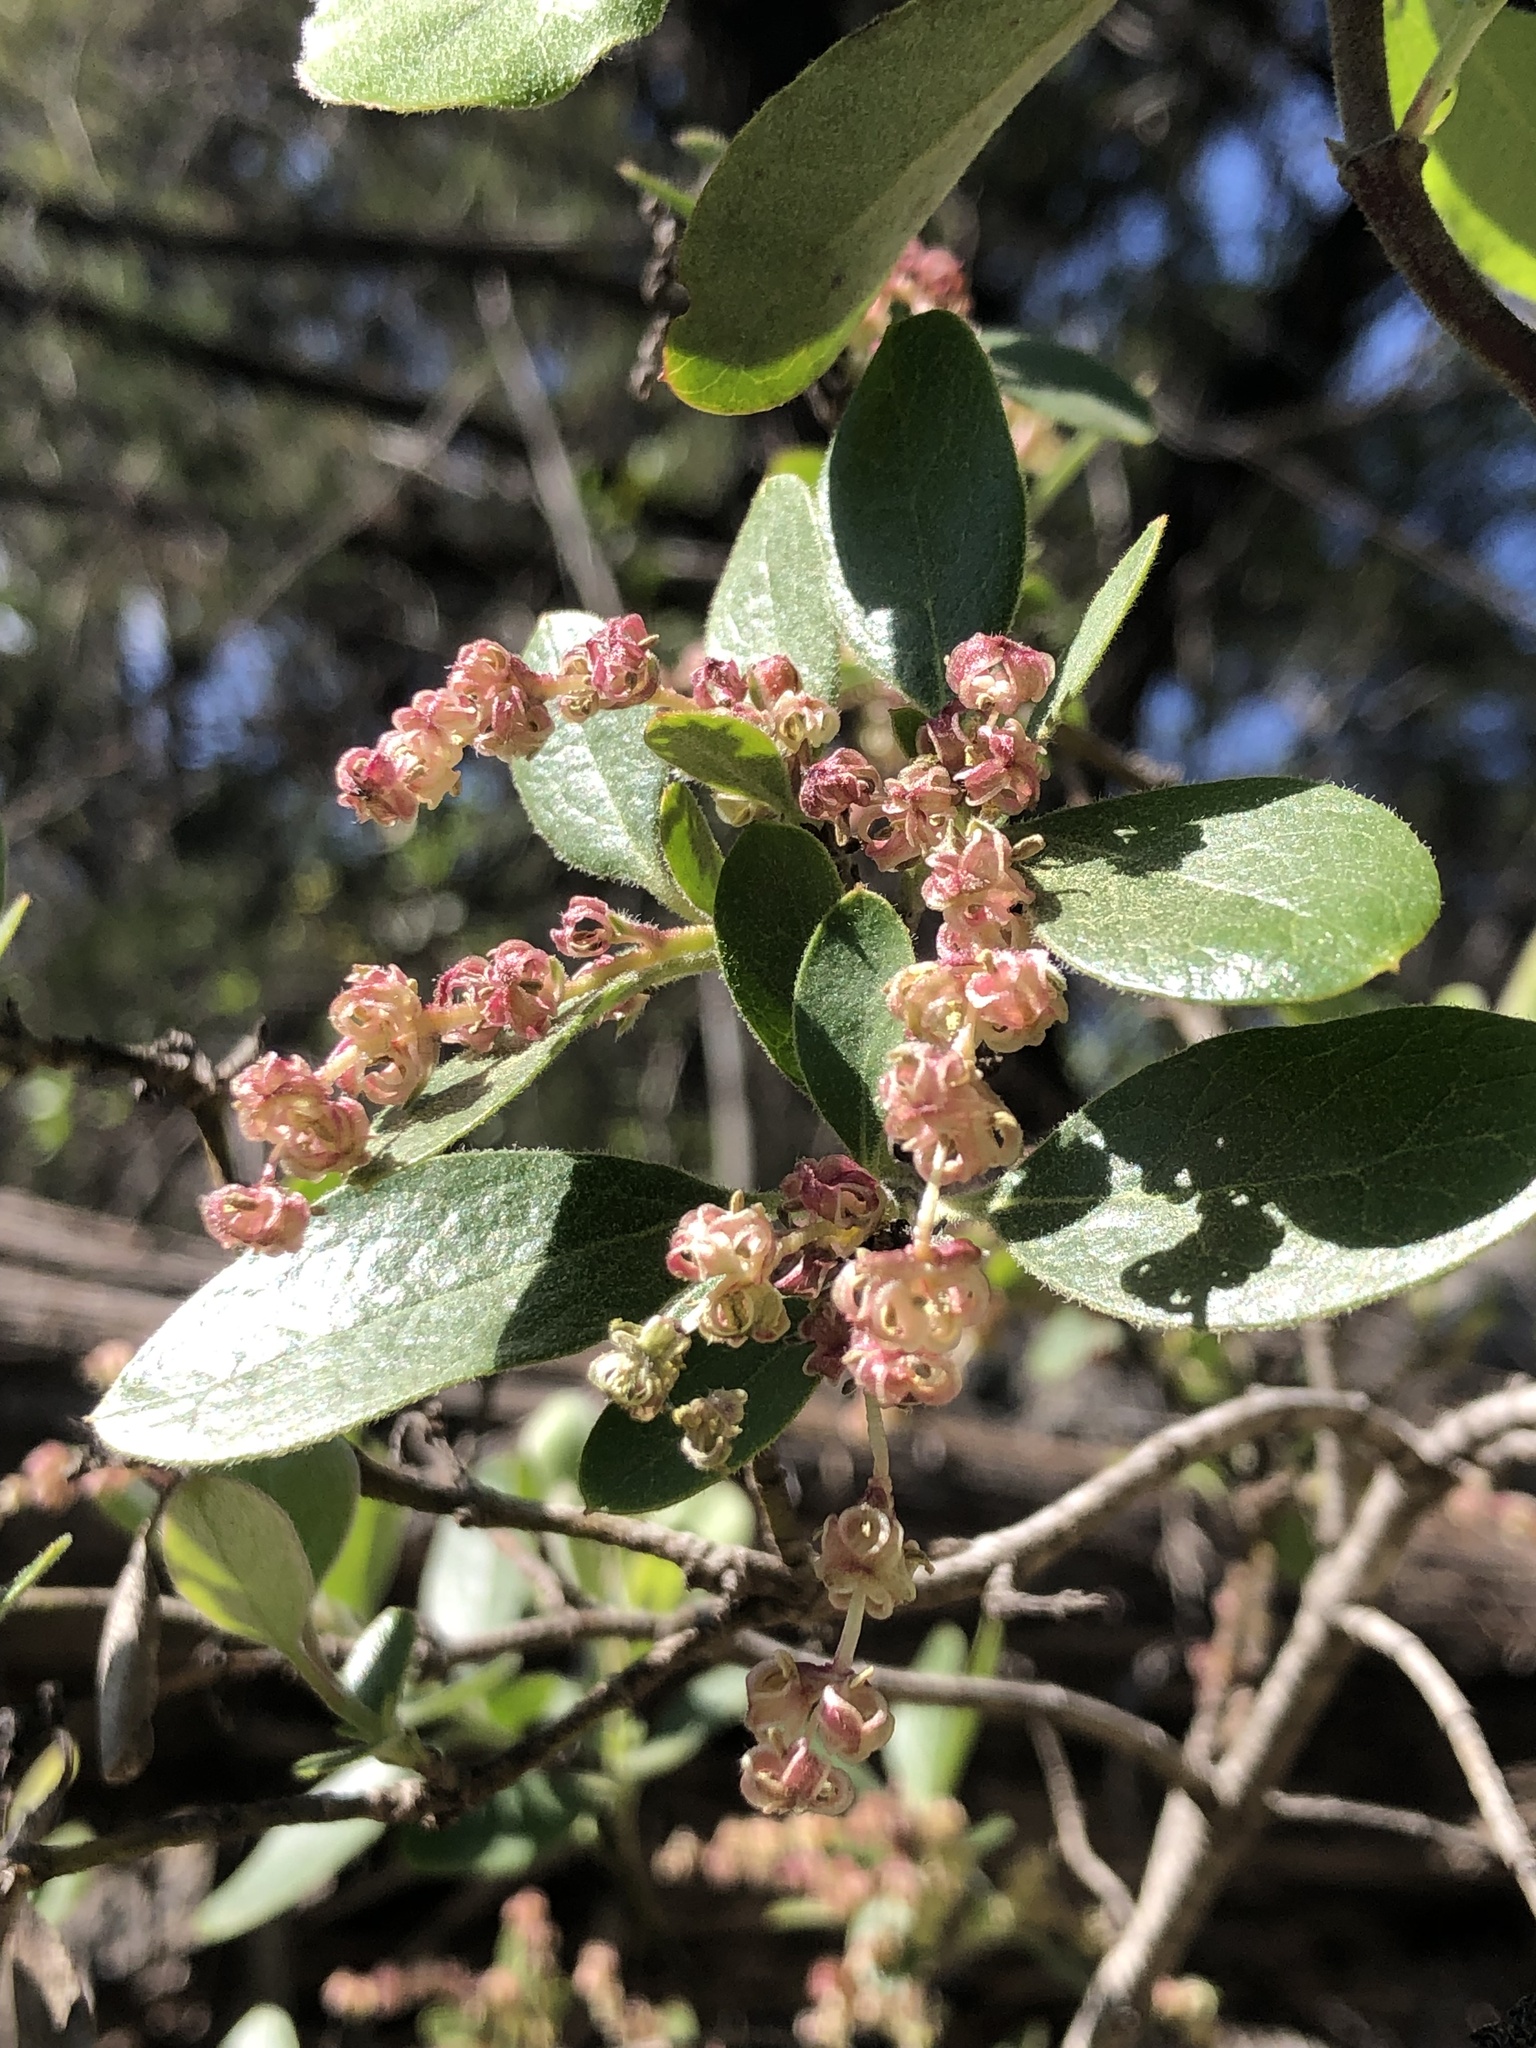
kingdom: Plantae
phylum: Tracheophyta
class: Magnoliopsida
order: Garryales
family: Garryaceae
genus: Garrya
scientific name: Garrya lindheimeri
